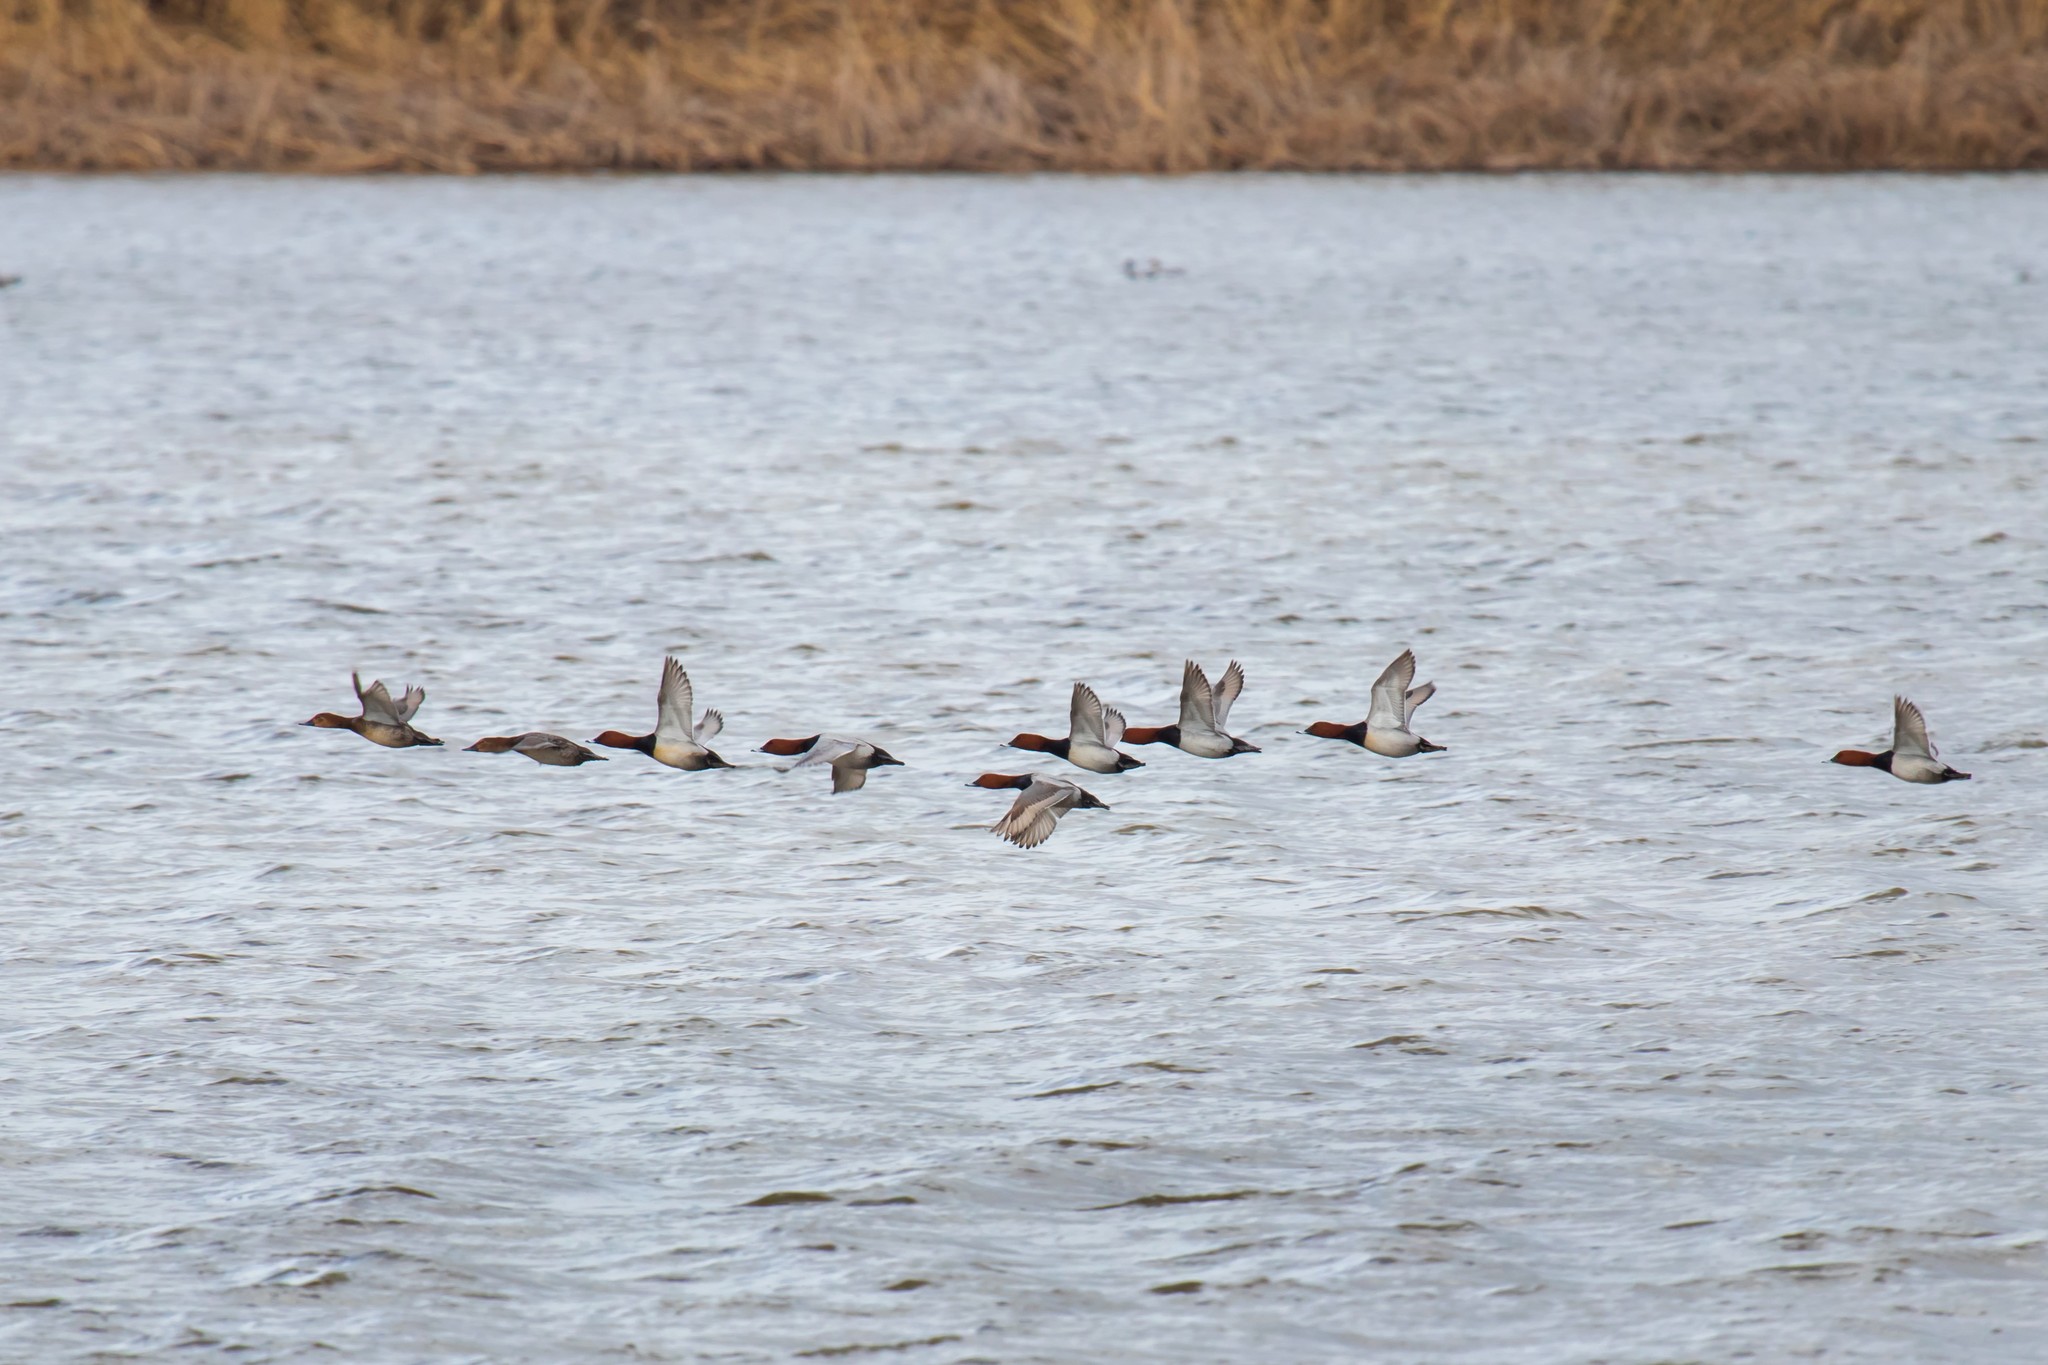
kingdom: Animalia
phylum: Chordata
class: Aves
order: Anseriformes
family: Anatidae
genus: Aythya
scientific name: Aythya ferina
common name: Common pochard
